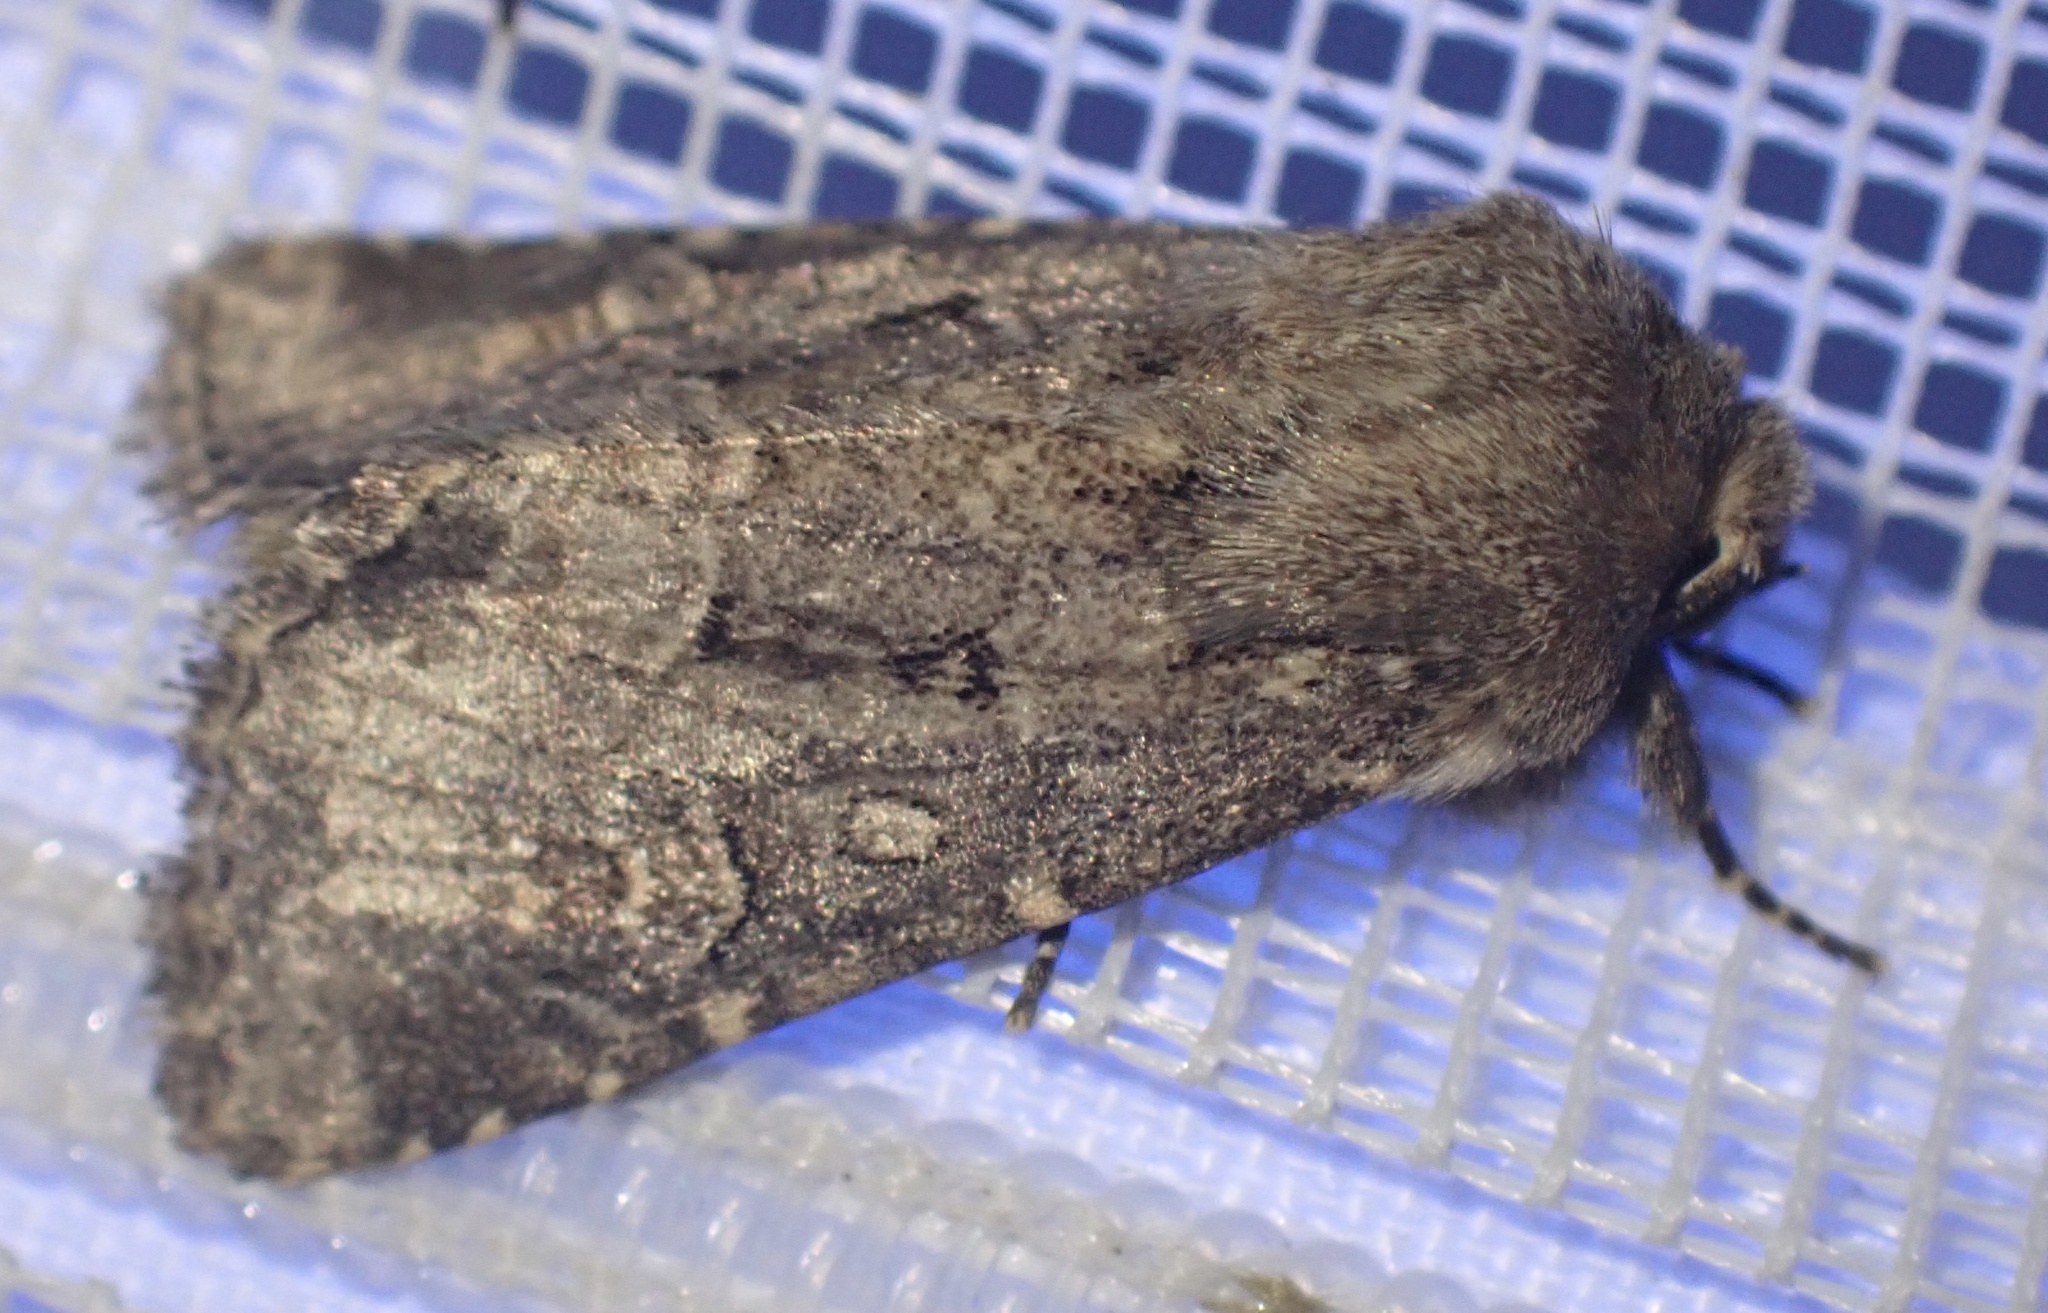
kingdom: Animalia
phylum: Arthropoda
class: Insecta
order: Lepidoptera
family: Noctuidae
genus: Luperina
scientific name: Luperina testacea
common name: Flounced rustic
